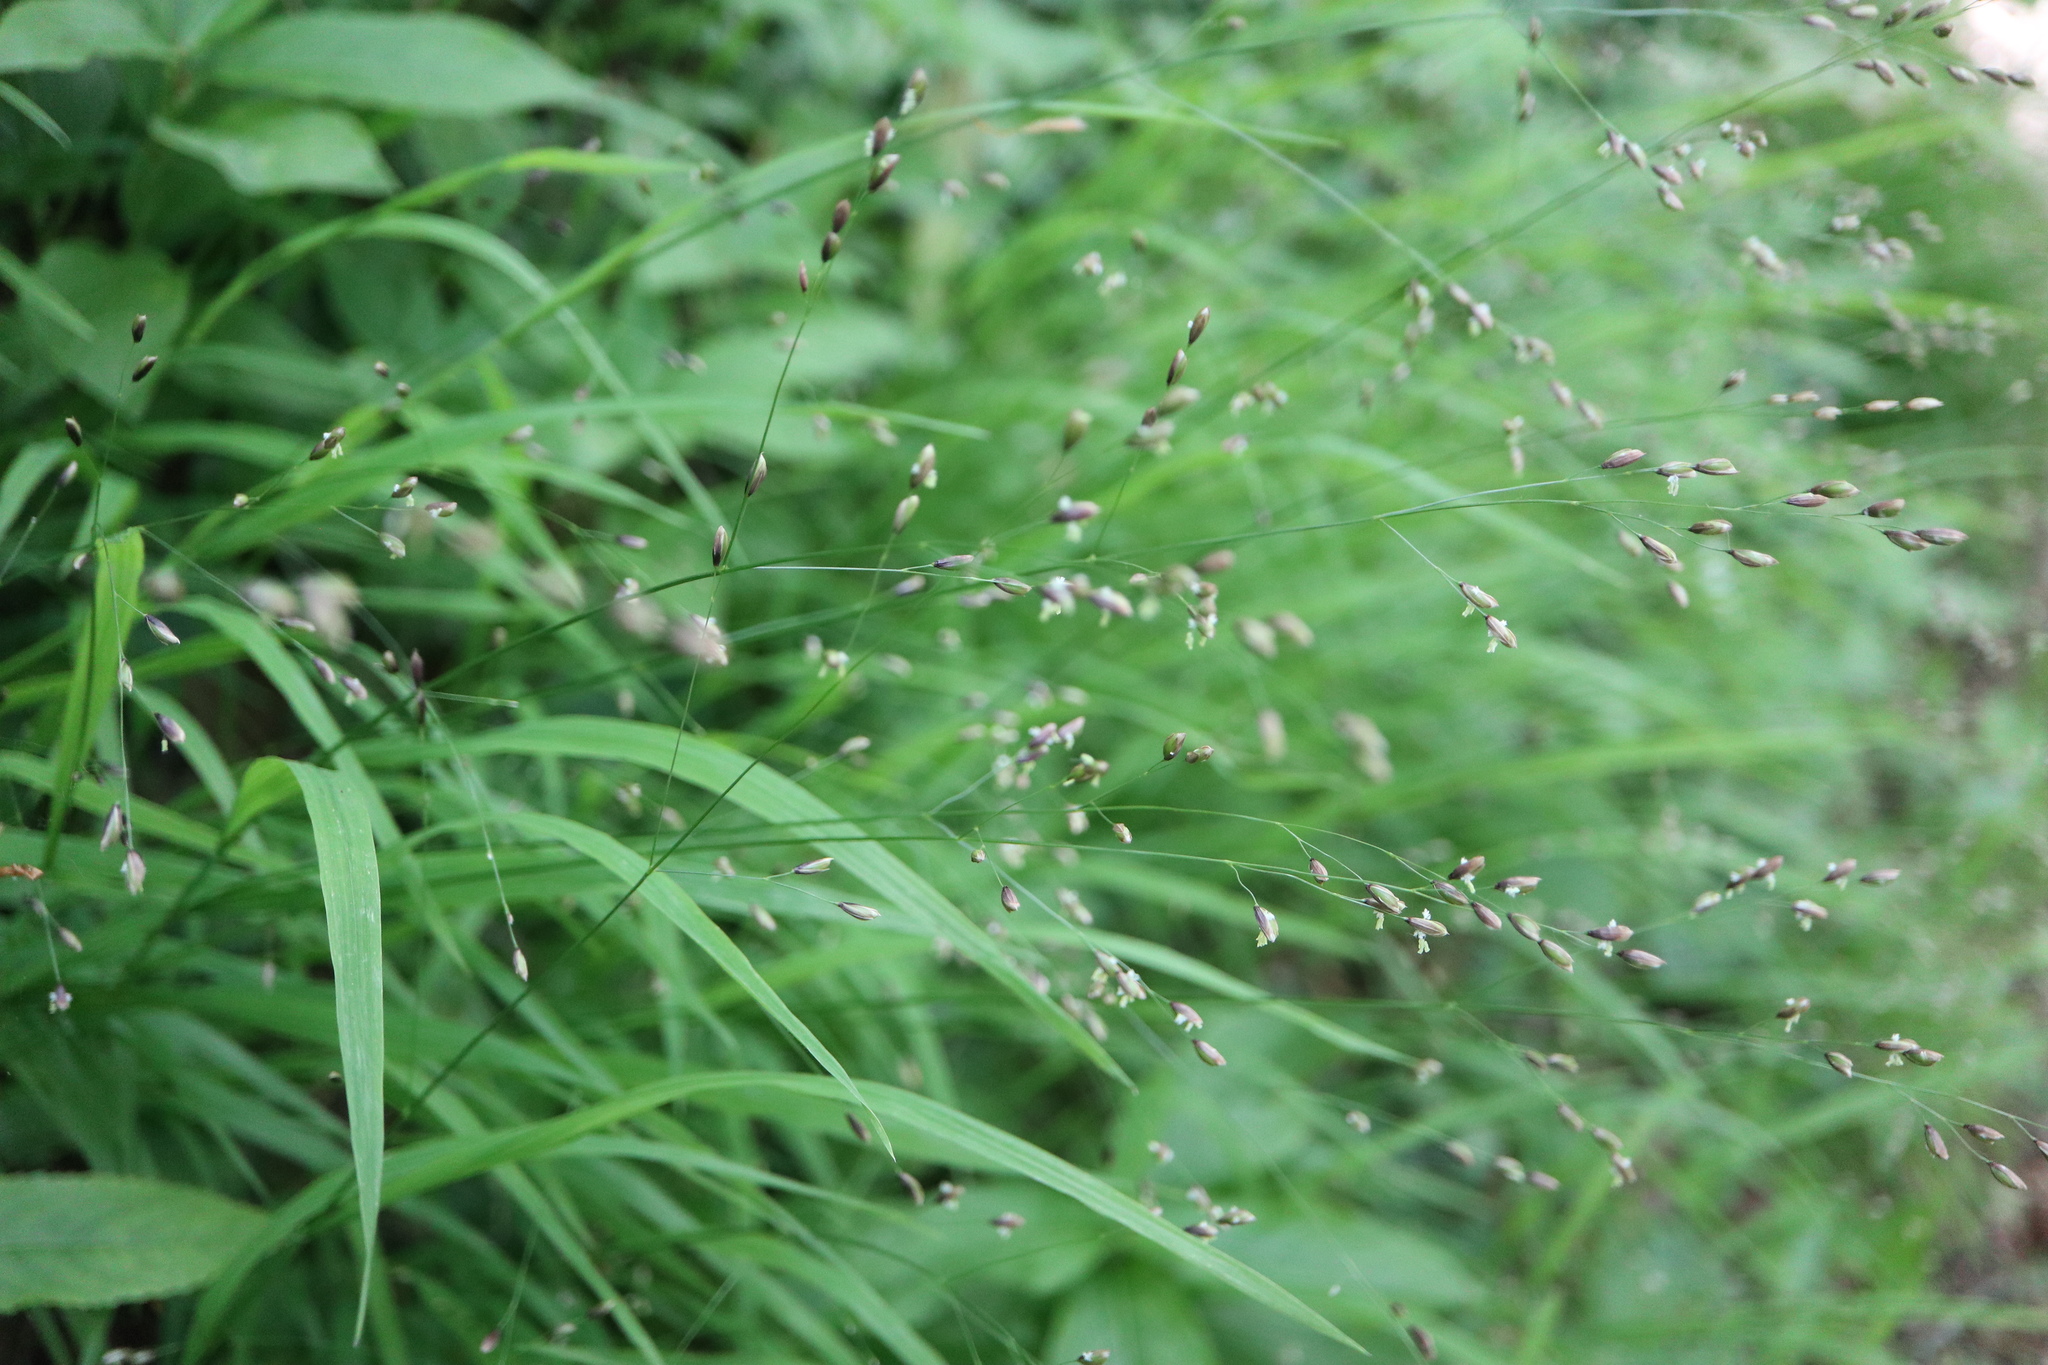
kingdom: Plantae
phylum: Tracheophyta
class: Liliopsida
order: Poales
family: Poaceae
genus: Melica
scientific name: Melica uniflora
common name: Wood melick
